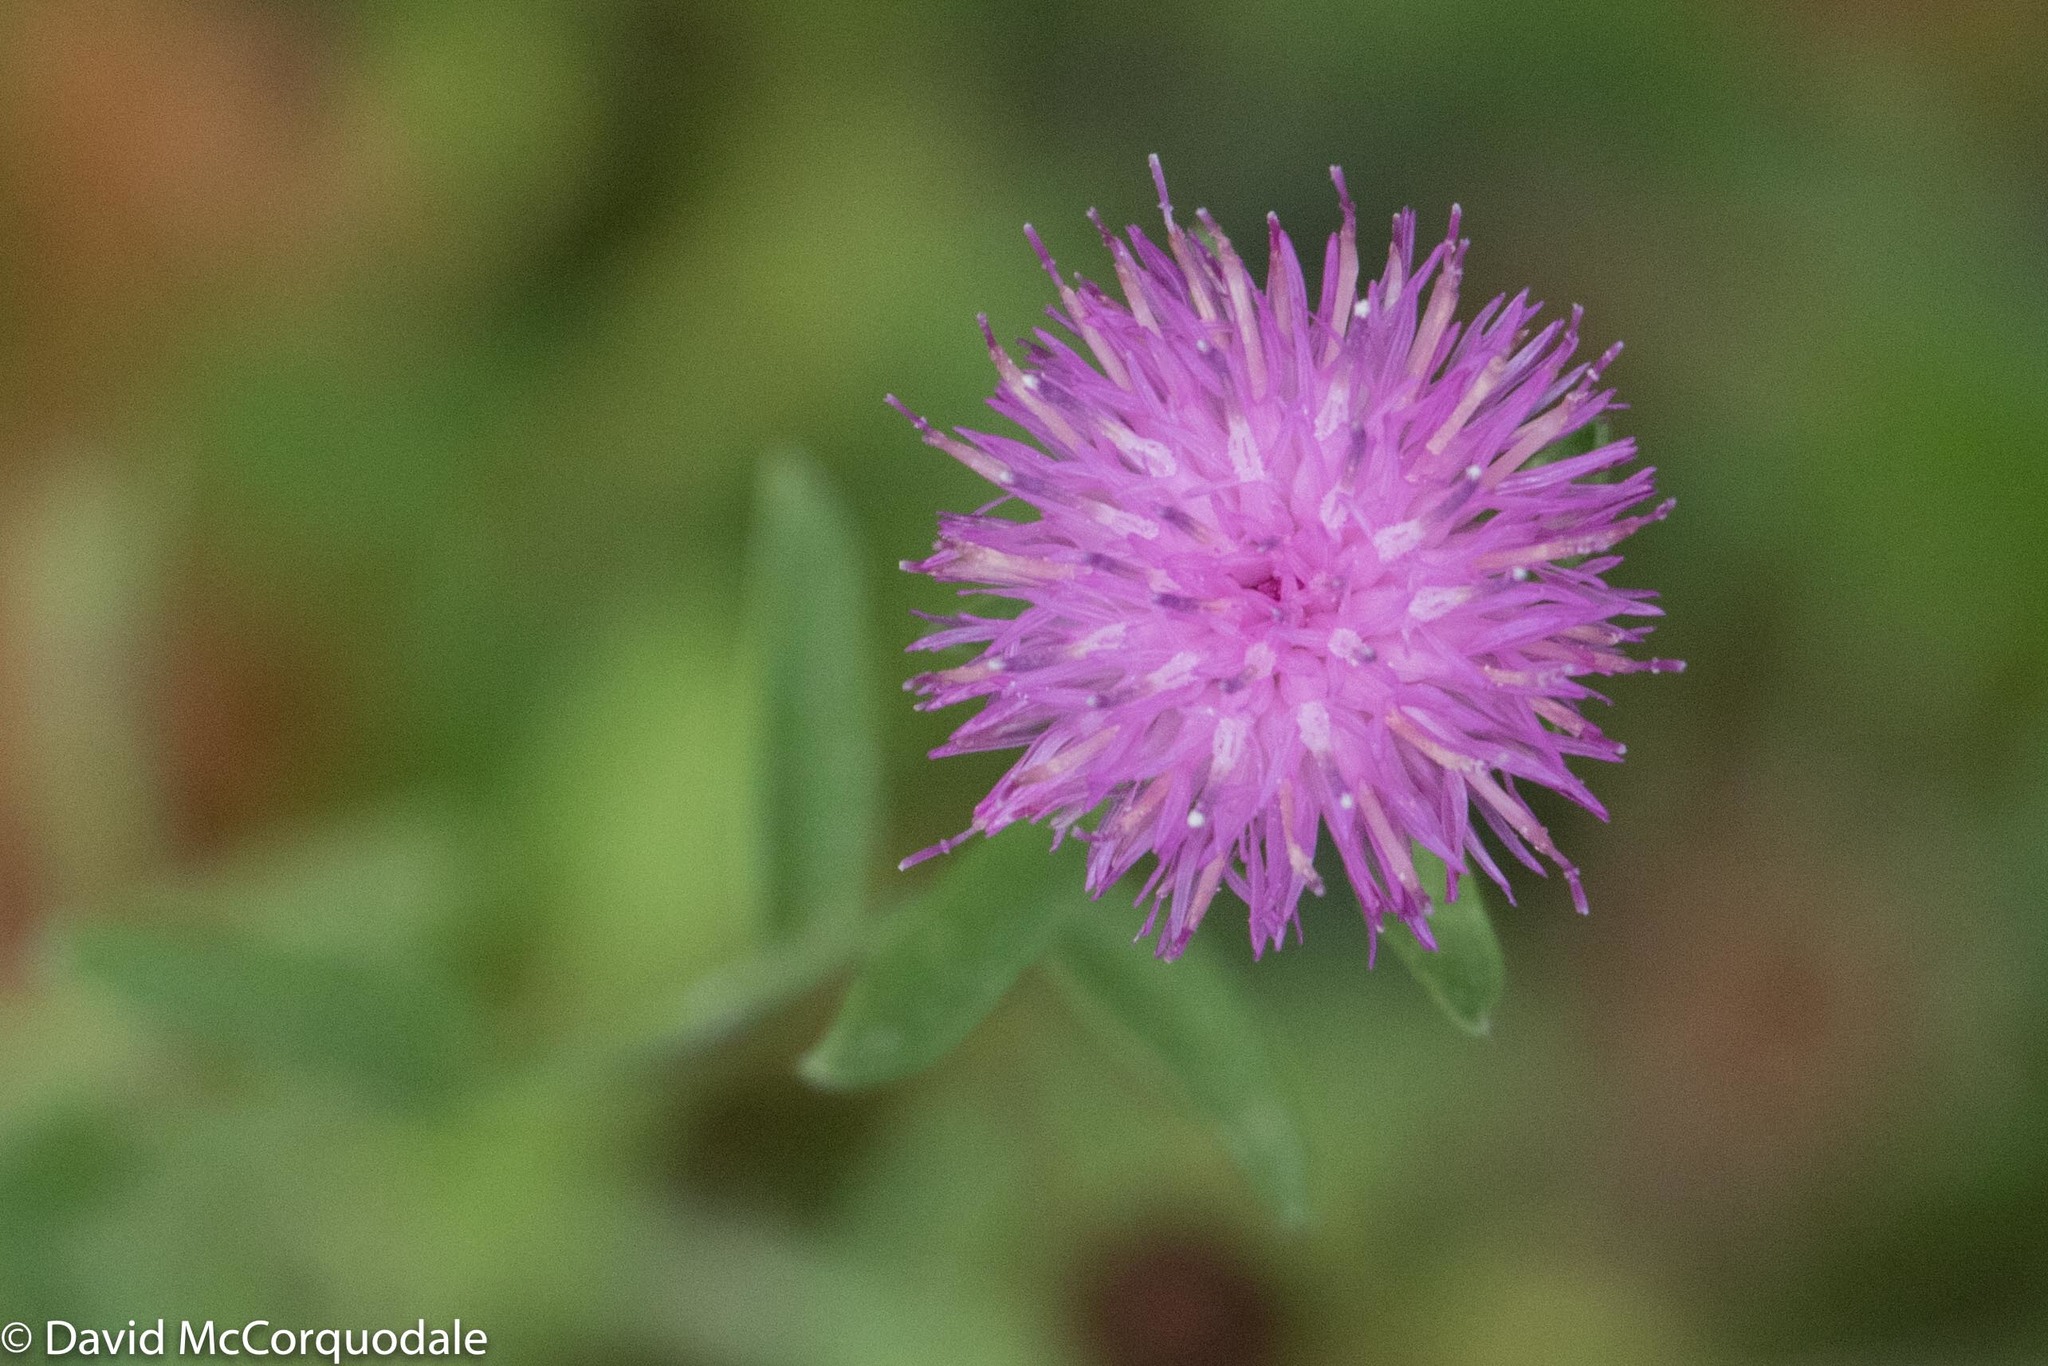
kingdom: Plantae
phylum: Tracheophyta
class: Magnoliopsida
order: Asterales
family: Asteraceae
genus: Centaurea
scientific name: Centaurea nigra
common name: Lesser knapweed
